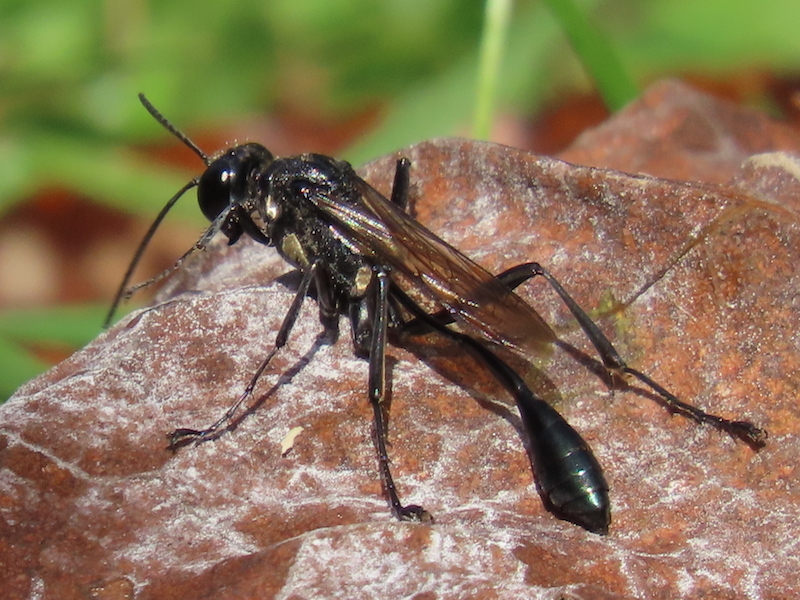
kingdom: Animalia
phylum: Arthropoda
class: Insecta
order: Hymenoptera
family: Sphecidae
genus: Eremnophila
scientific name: Eremnophila aureonotata
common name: Gold-marked thread-waisted wasp
